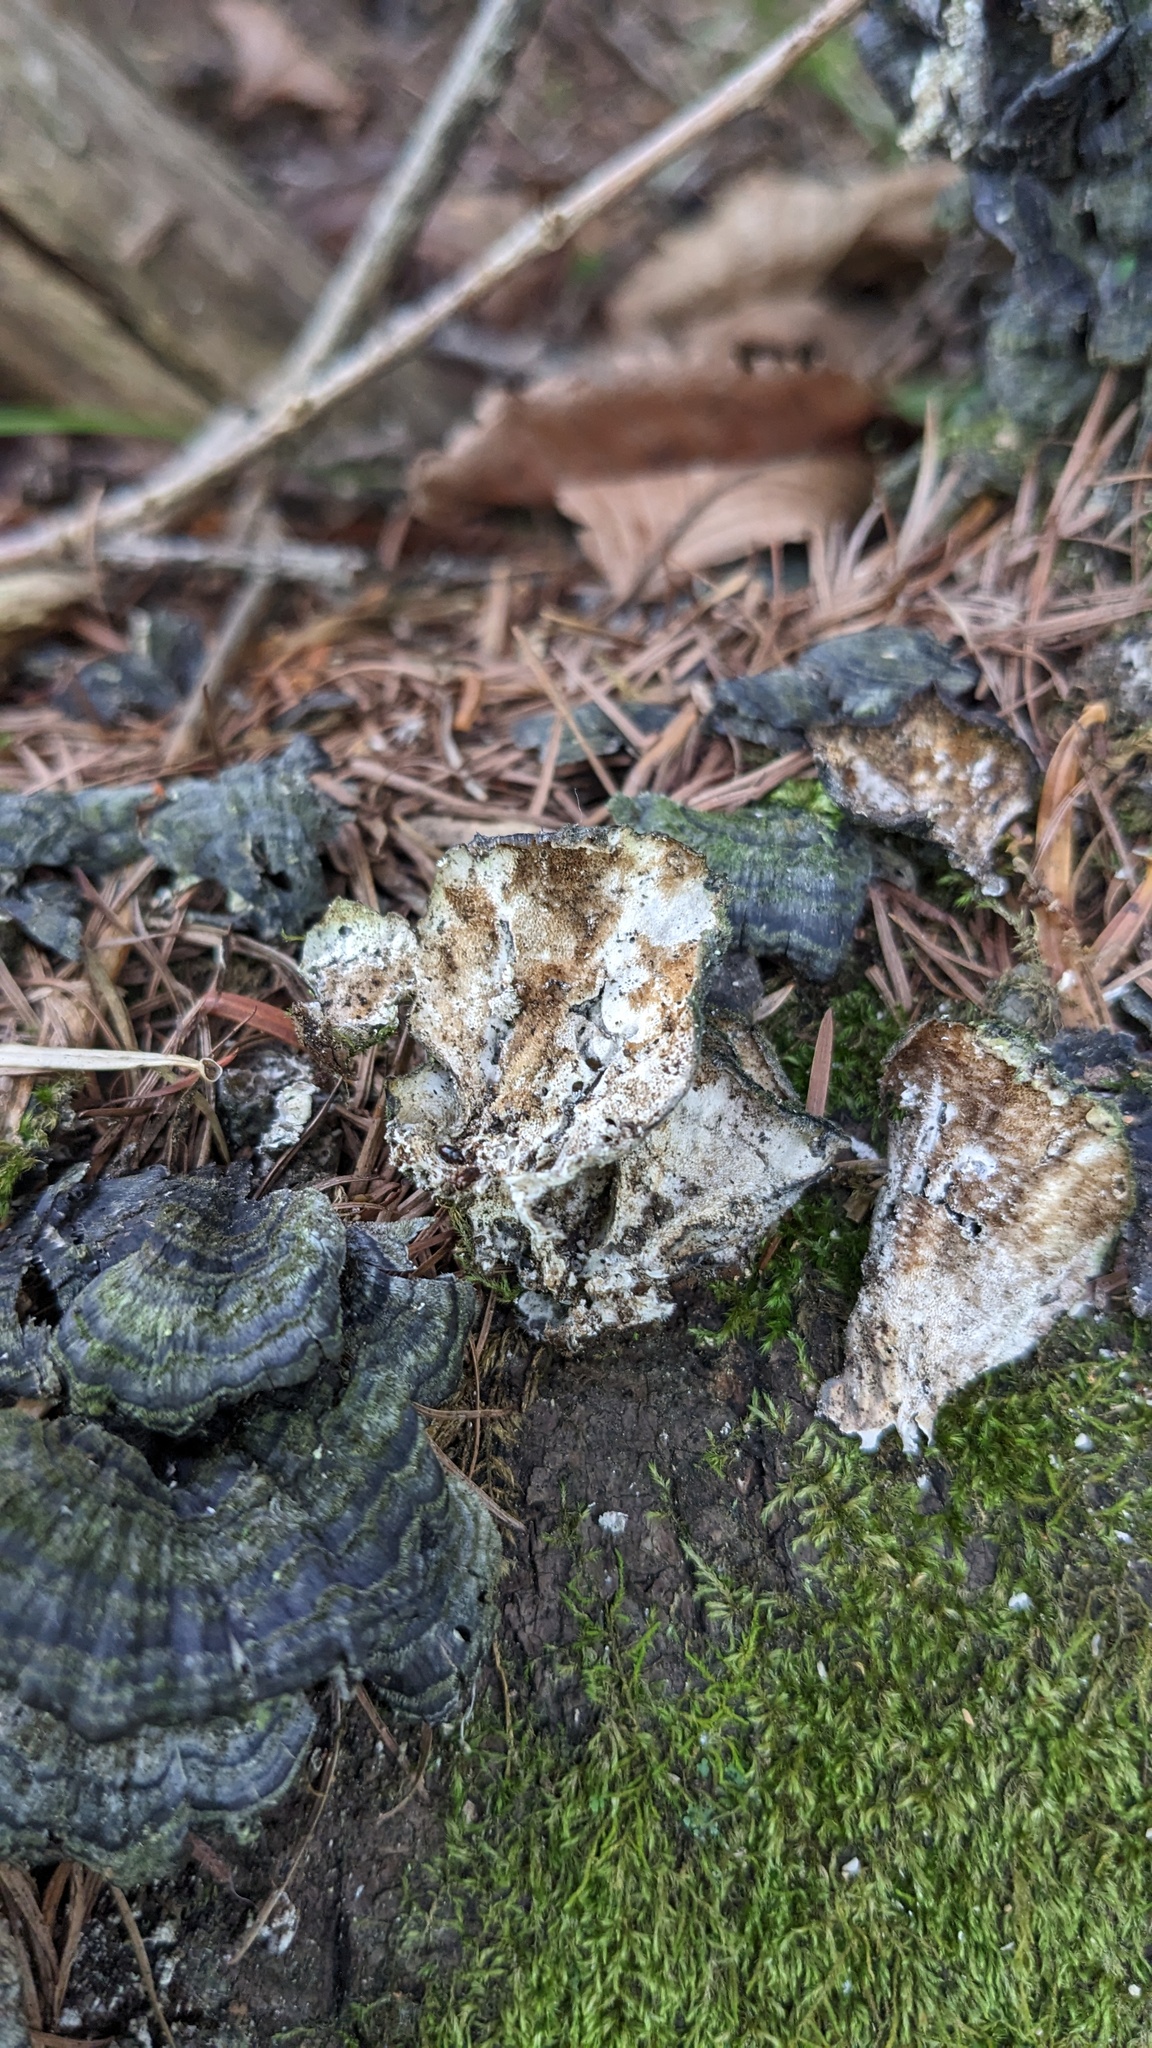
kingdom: Fungi
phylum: Basidiomycota
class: Agaricomycetes
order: Polyporales
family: Polyporaceae
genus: Trametes
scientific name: Trametes versicolor
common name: Turkeytail
